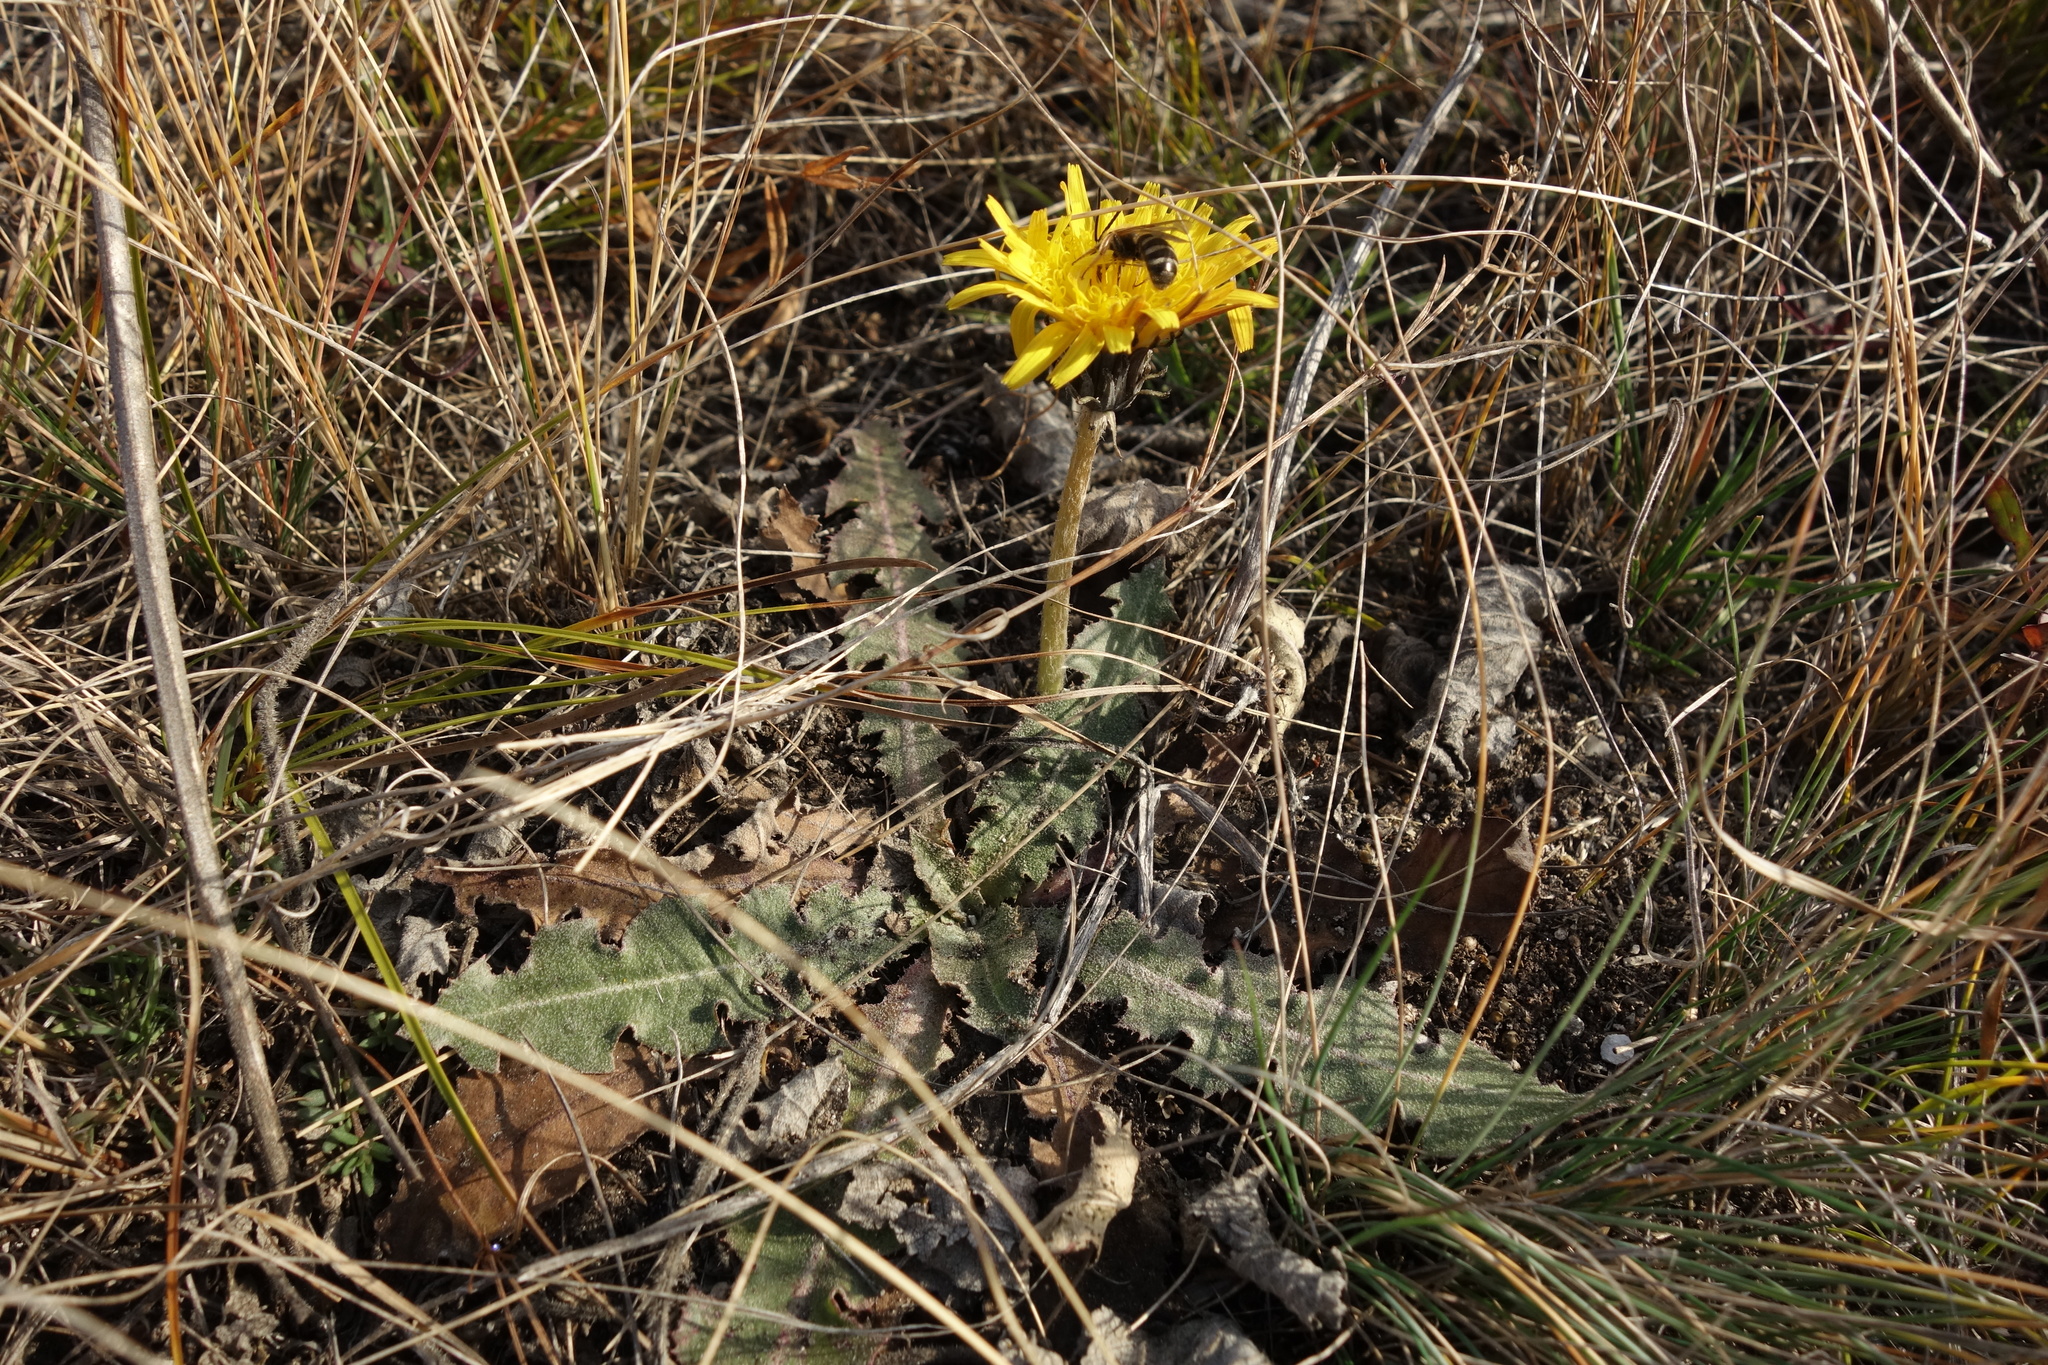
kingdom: Plantae
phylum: Tracheophyta
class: Magnoliopsida
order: Asterales
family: Asteraceae
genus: Taraxacum
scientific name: Taraxacum serotinum
